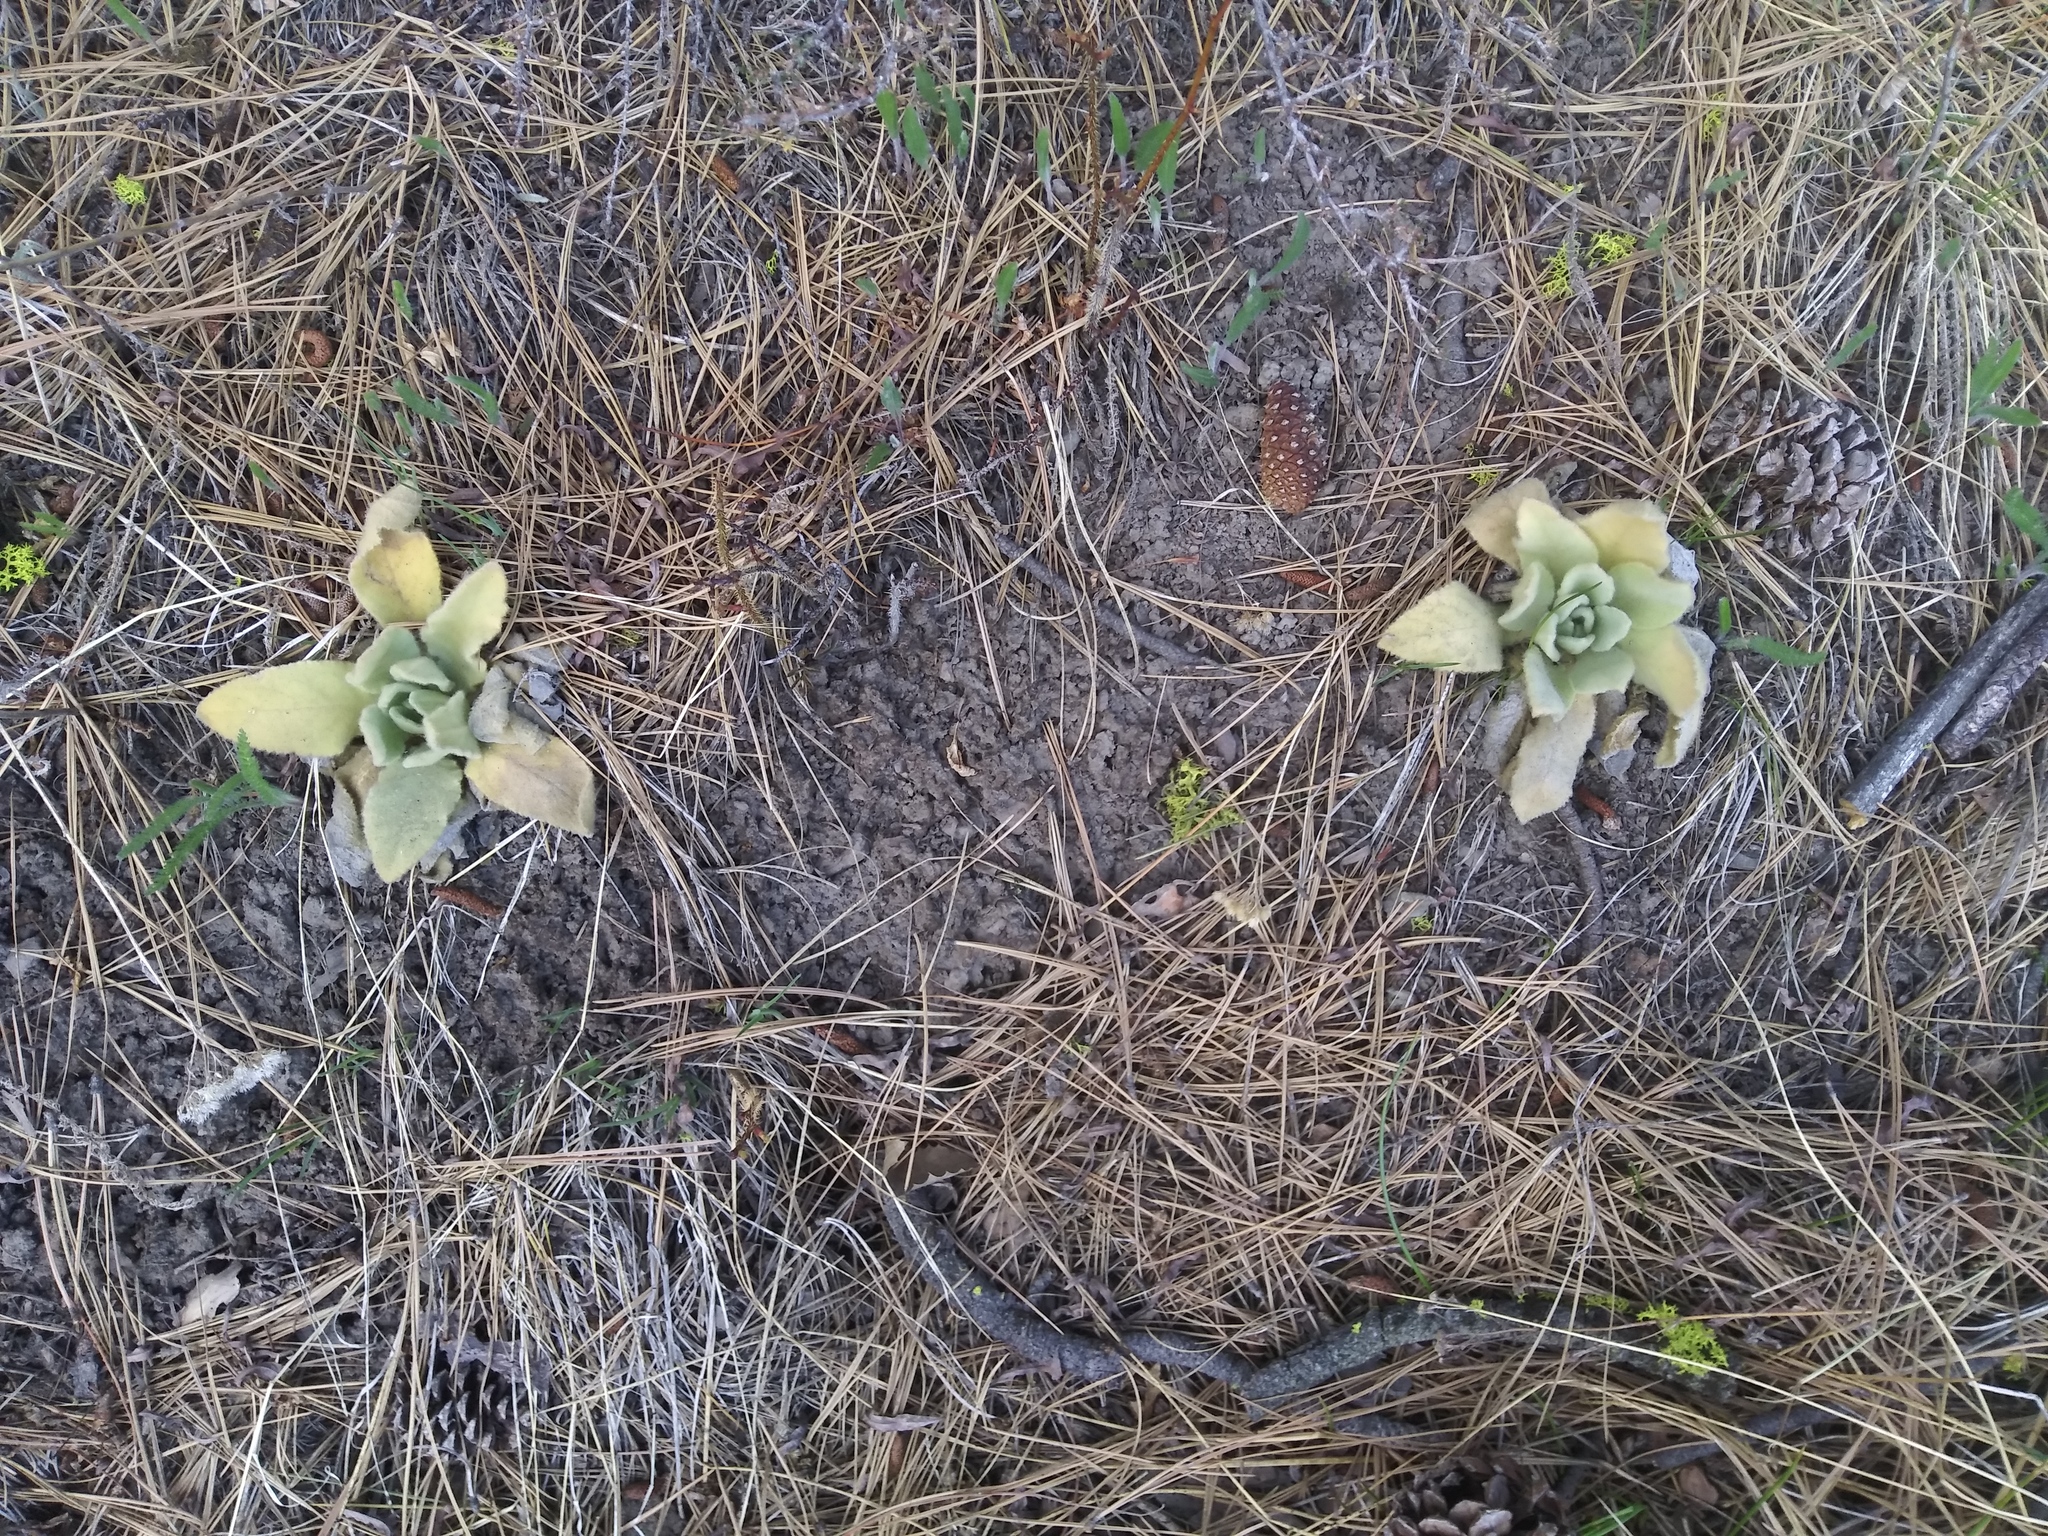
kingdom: Plantae
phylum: Tracheophyta
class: Magnoliopsida
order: Lamiales
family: Scrophulariaceae
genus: Verbascum
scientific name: Verbascum thapsus
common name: Common mullein
